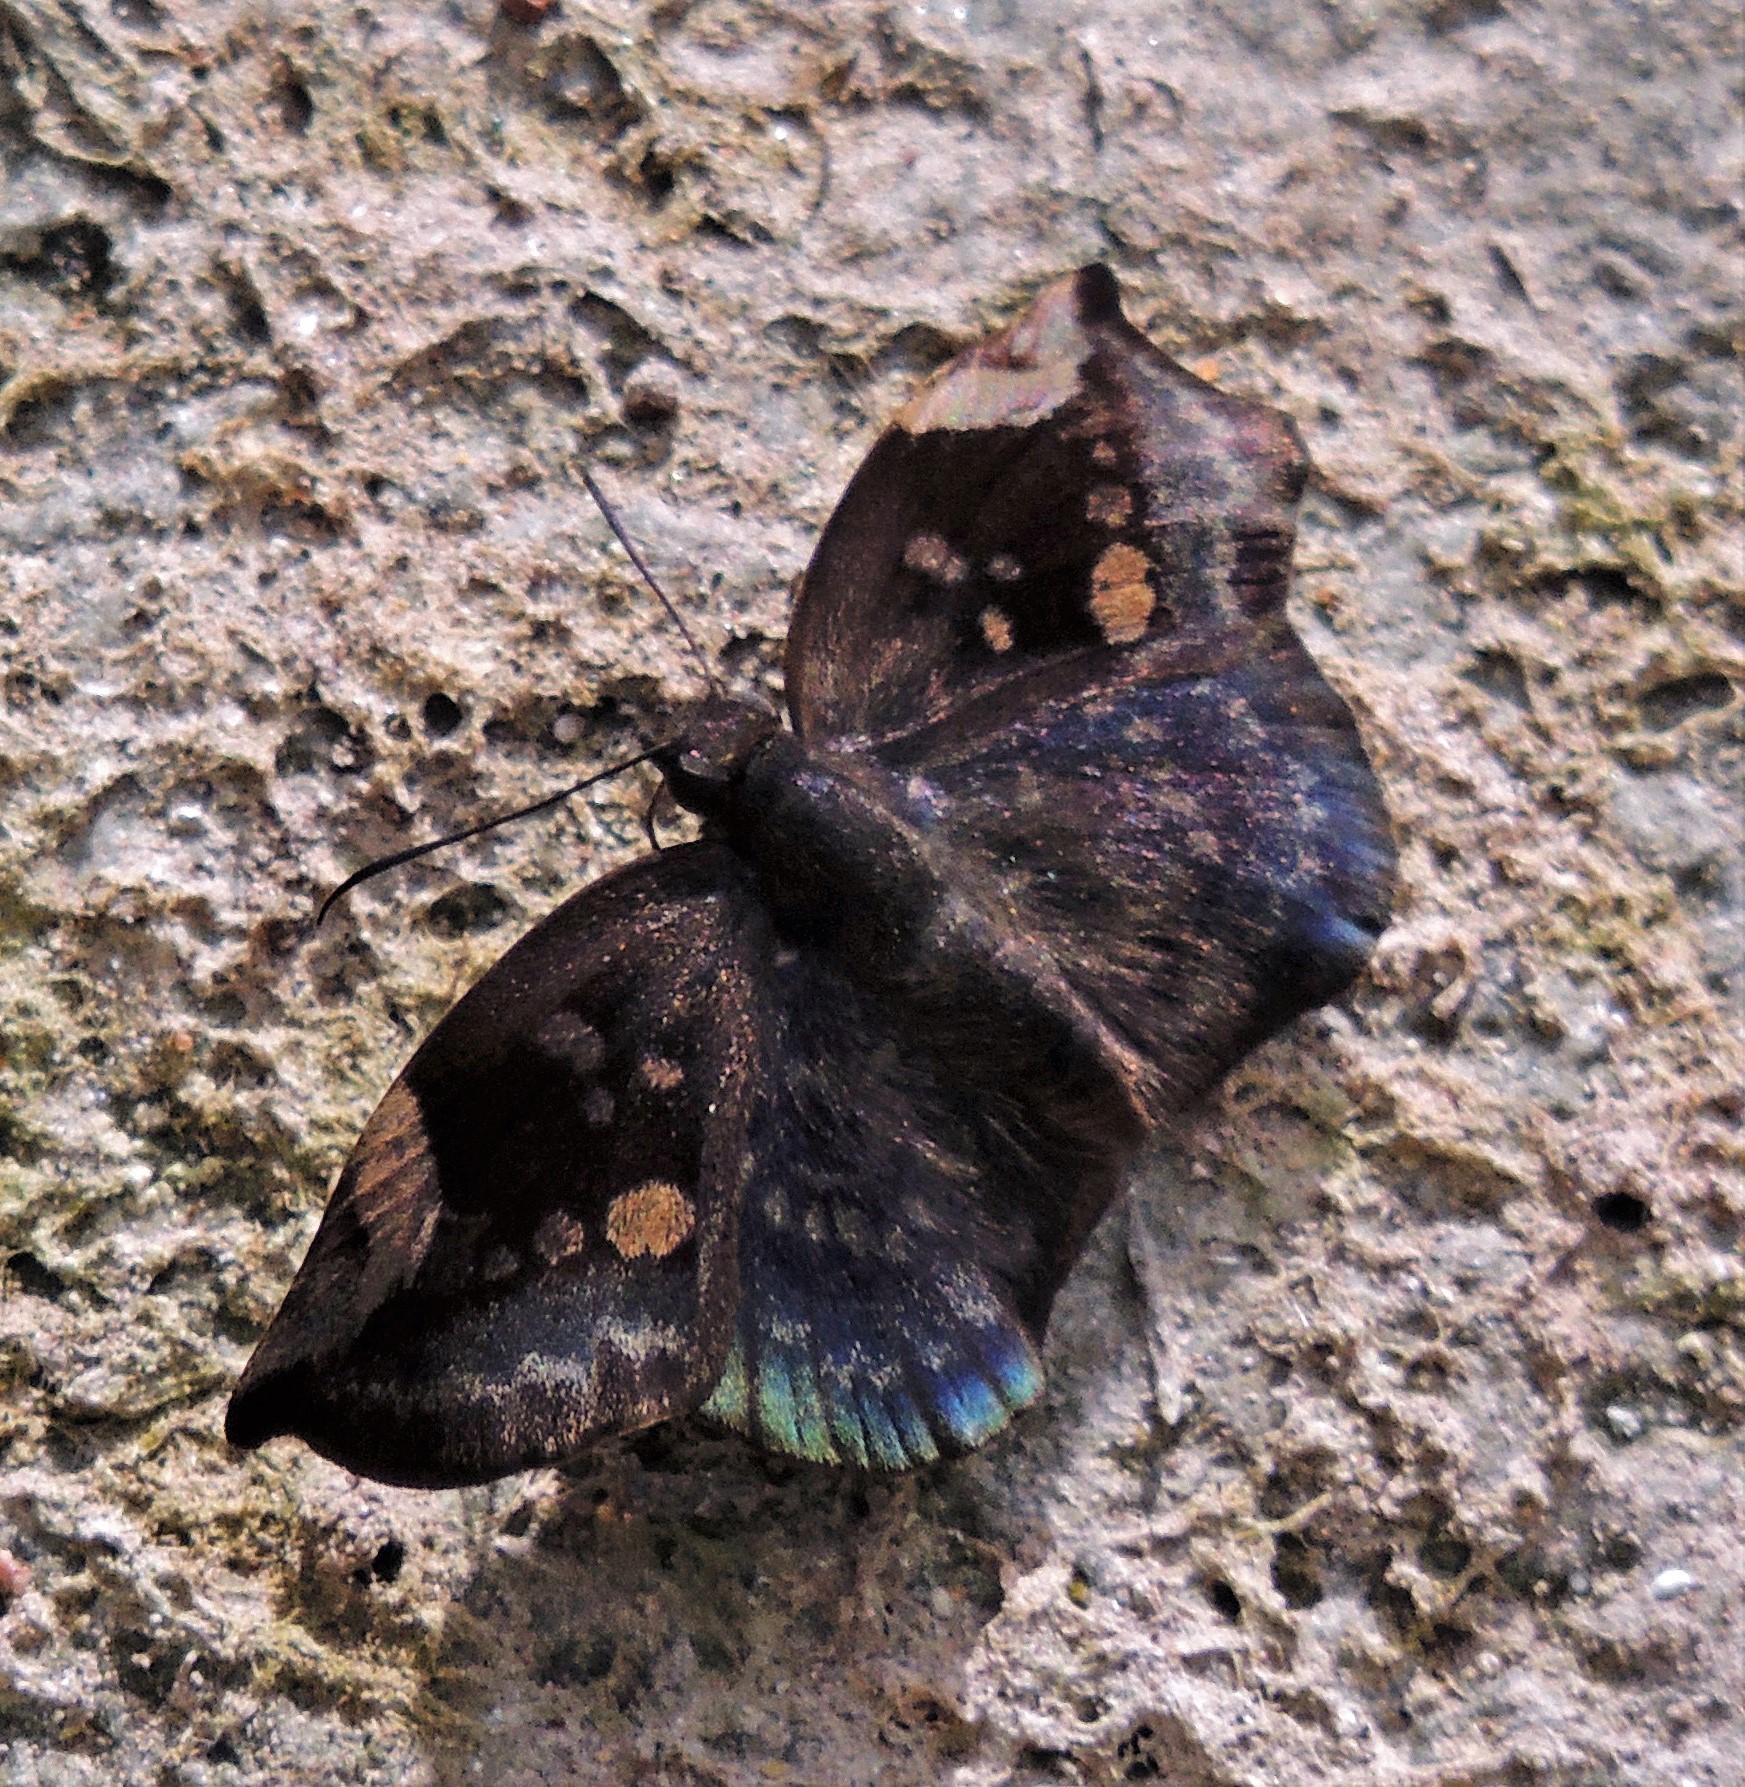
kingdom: Animalia
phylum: Arthropoda
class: Insecta
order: Lepidoptera
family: Hesperiidae
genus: Achlyodes
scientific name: Achlyodes thraso
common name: Sickle-winged skipper
